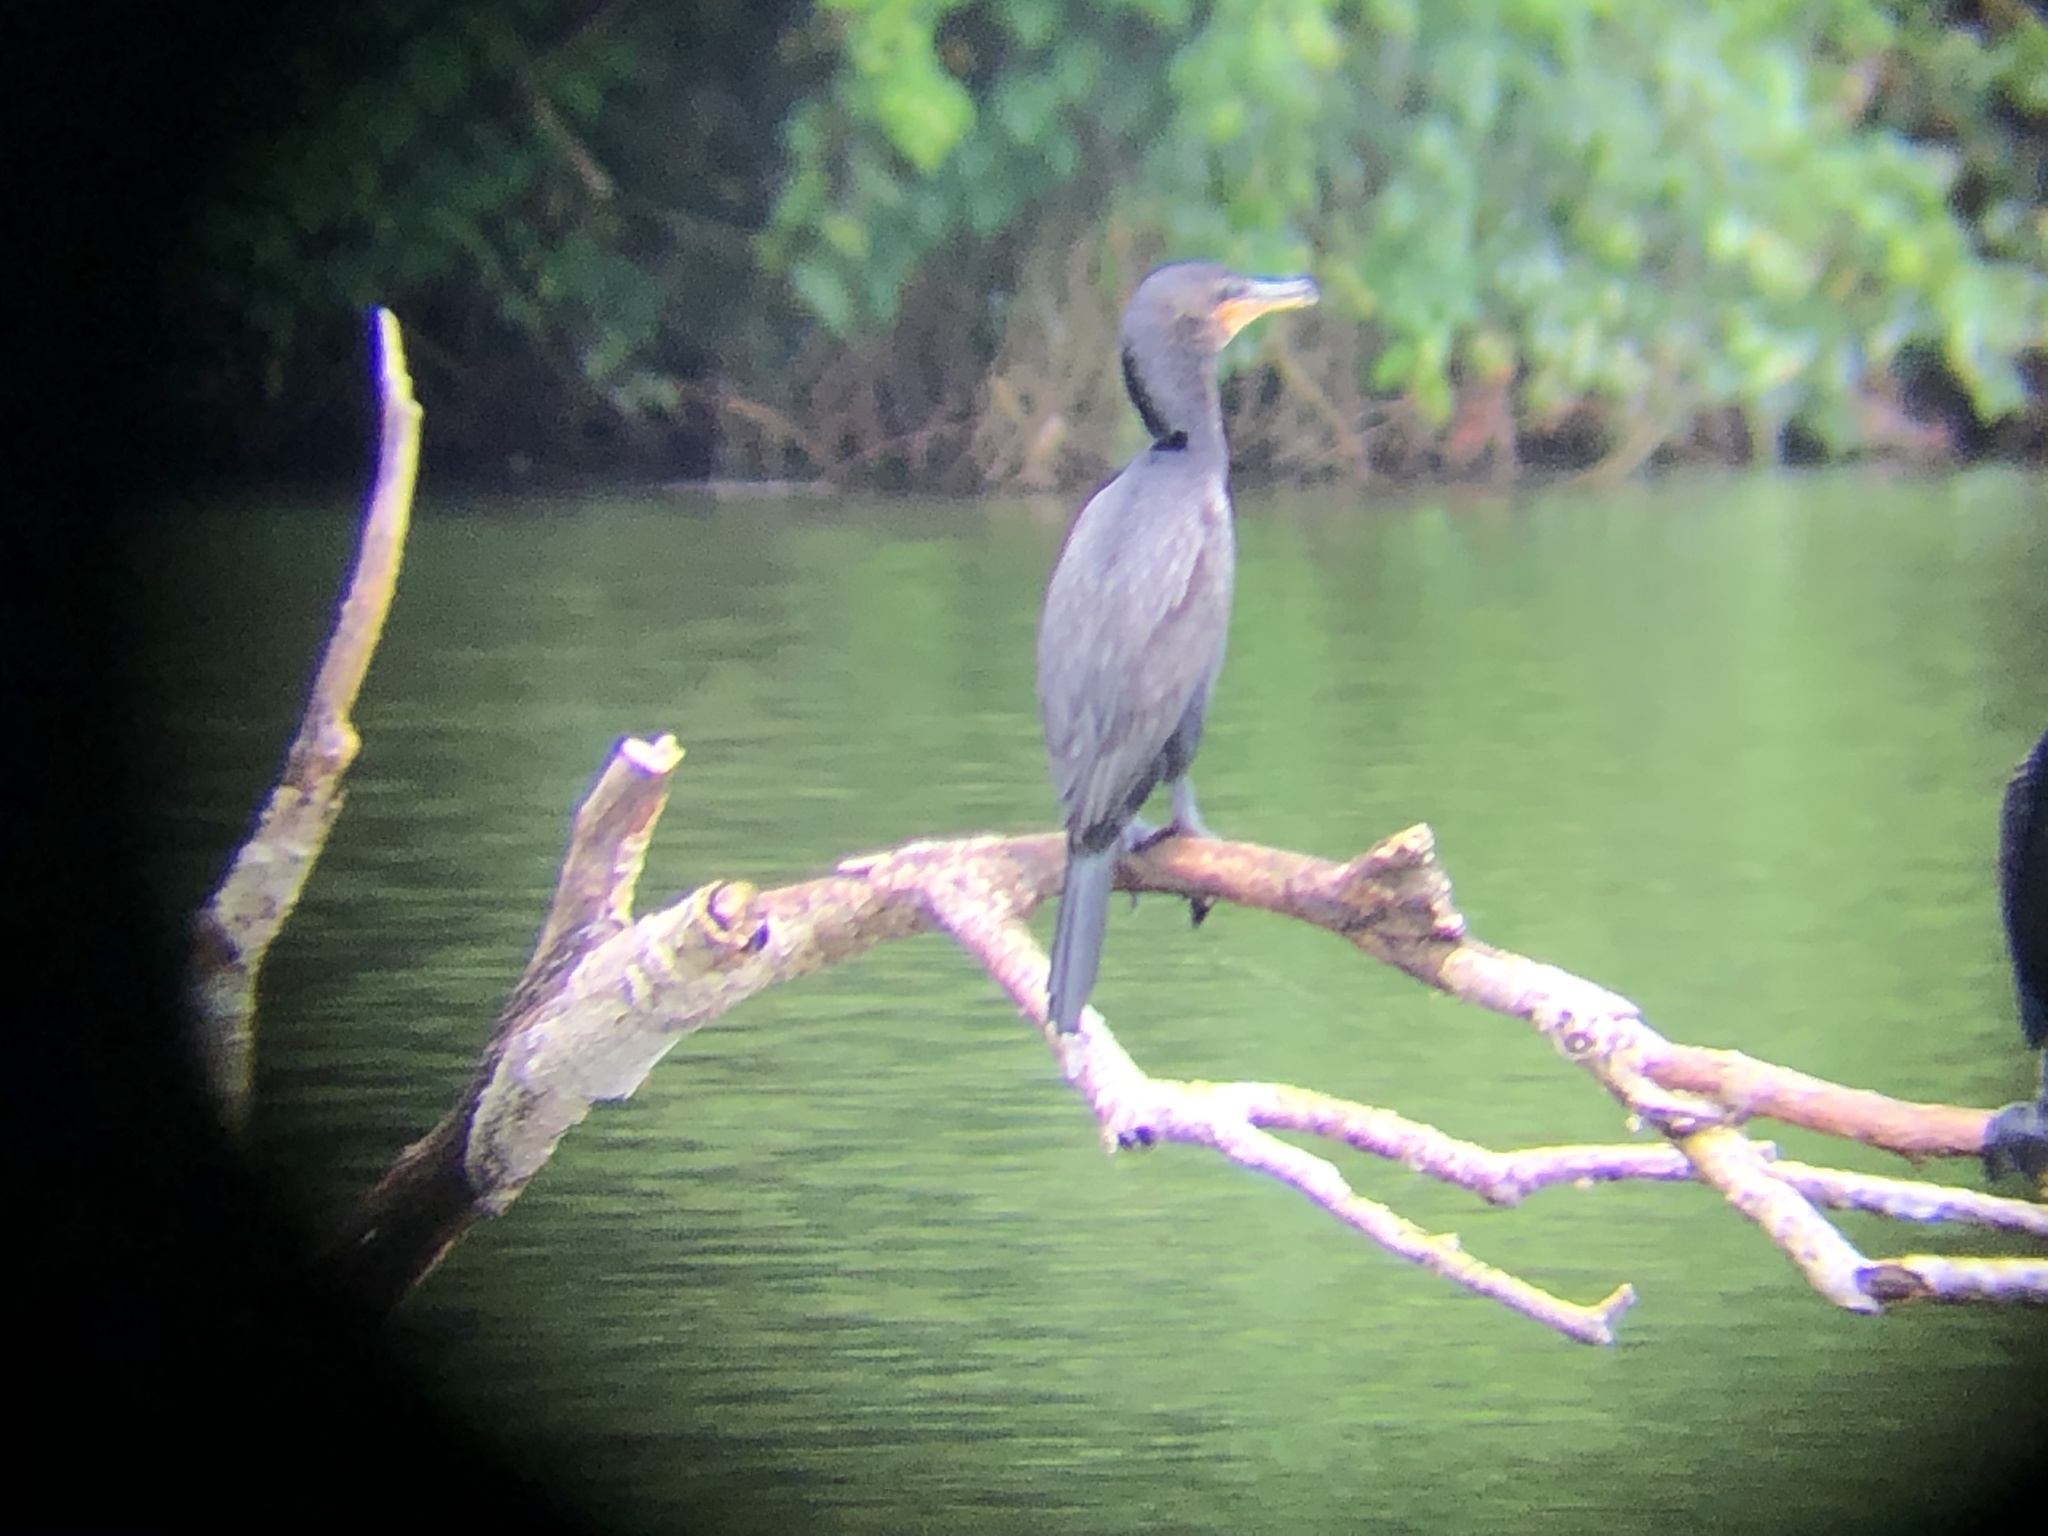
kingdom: Animalia
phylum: Chordata
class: Aves
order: Suliformes
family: Phalacrocoracidae
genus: Phalacrocorax
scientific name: Phalacrocorax brasilianus
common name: Neotropic cormorant
